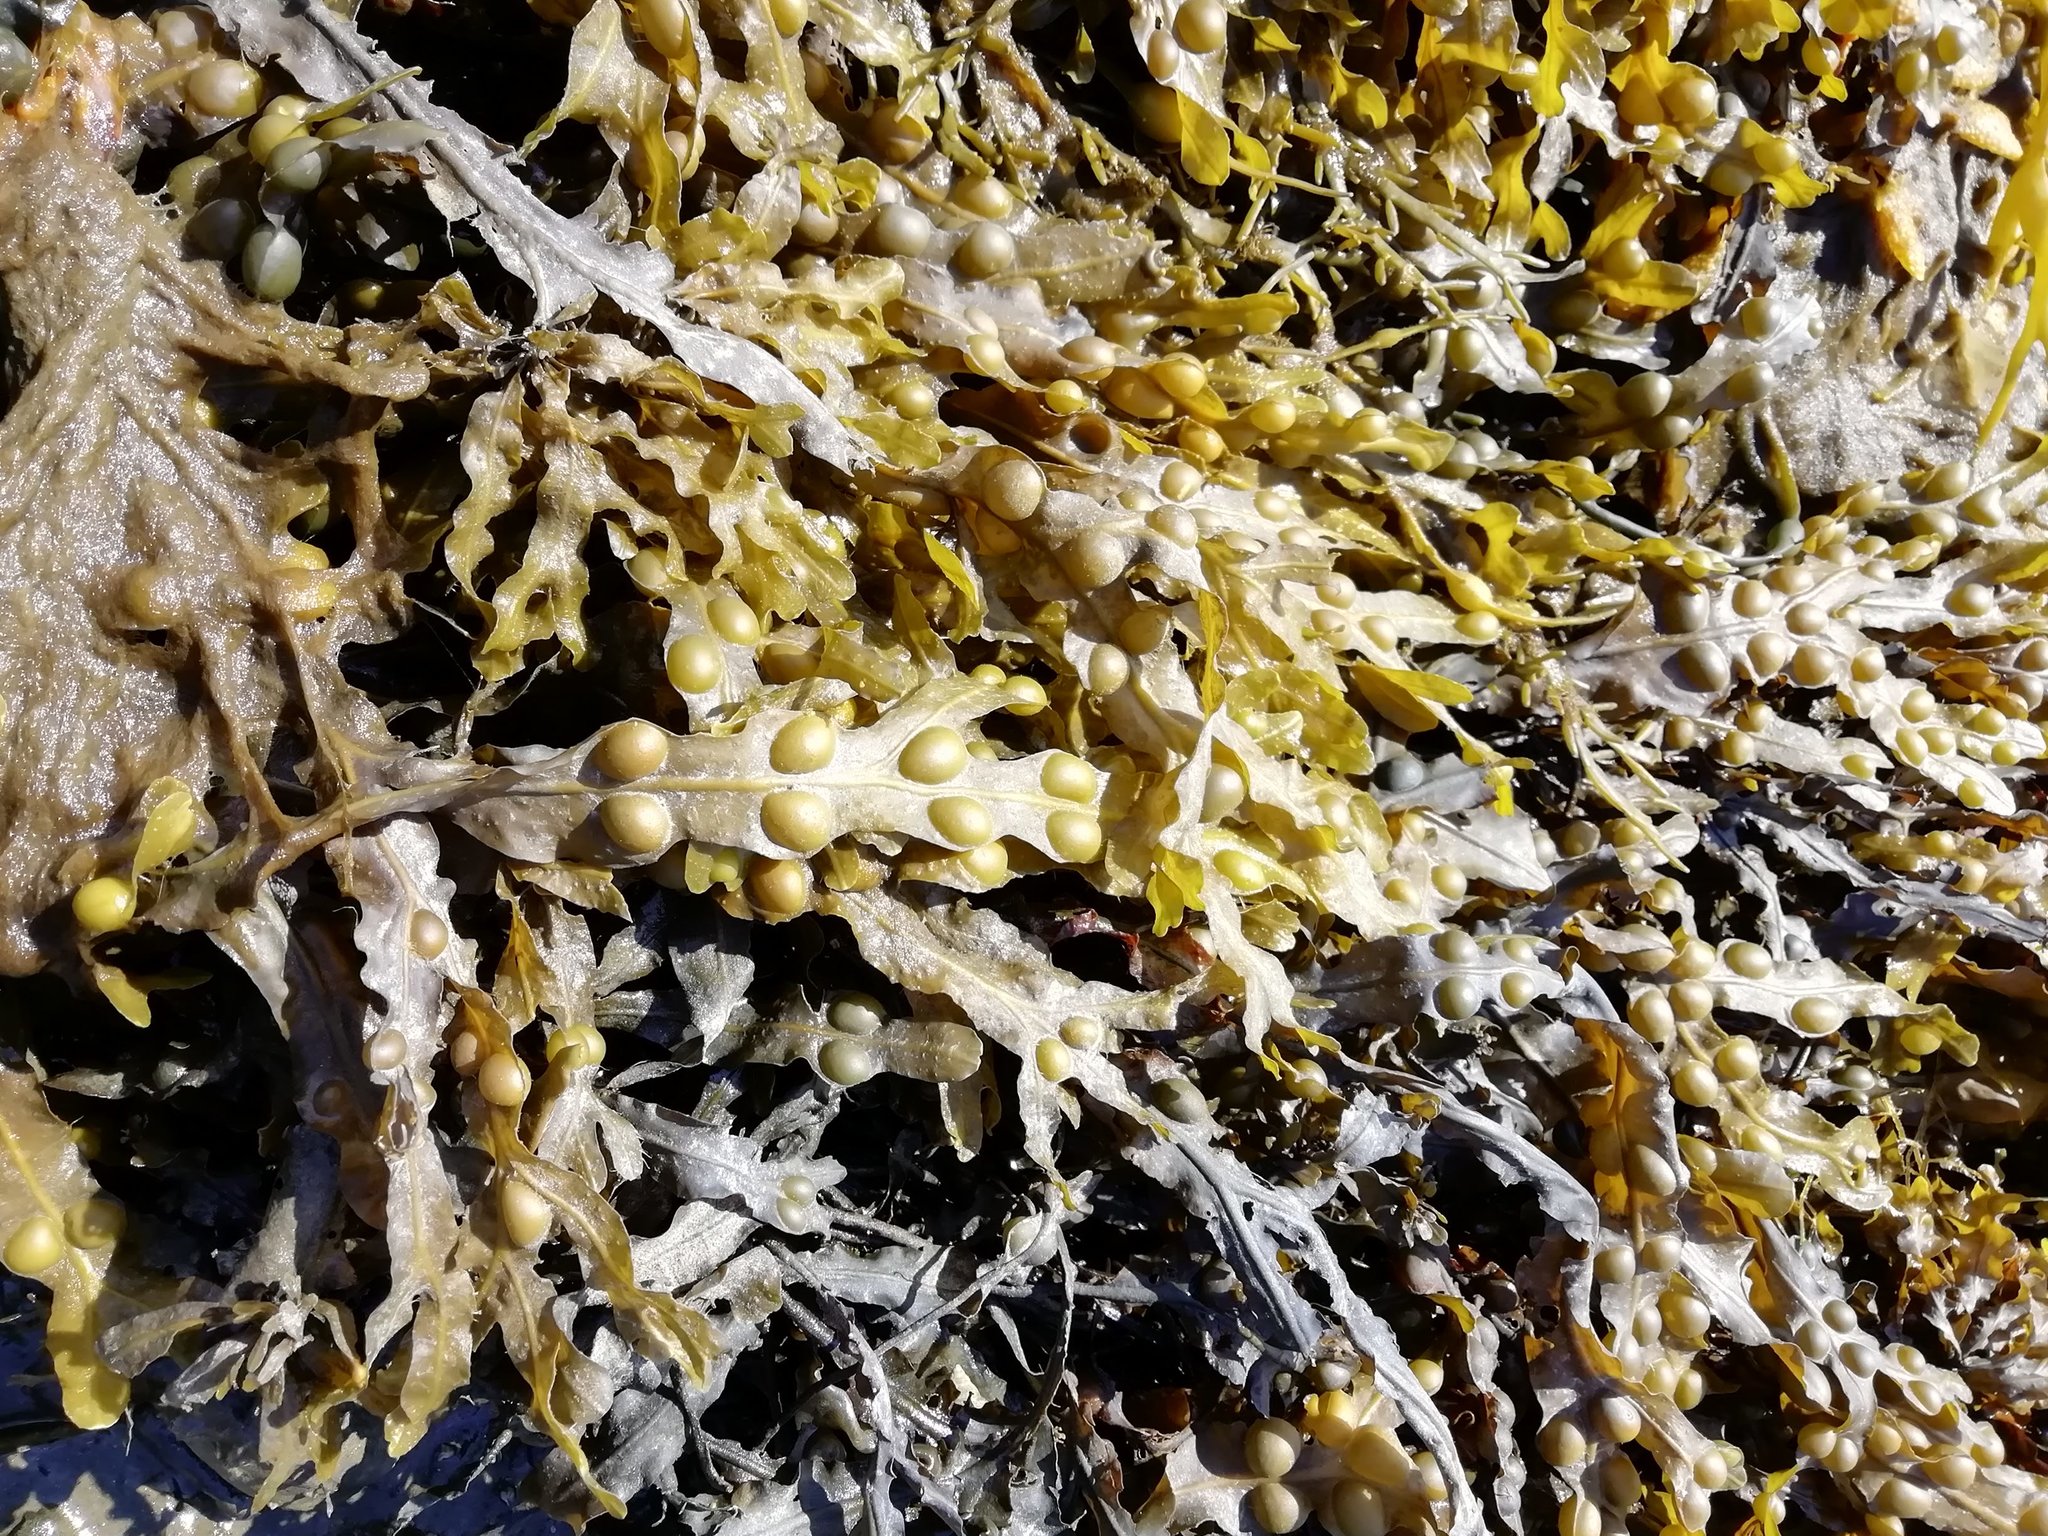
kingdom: Chromista
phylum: Ochrophyta
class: Phaeophyceae
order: Fucales
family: Fucaceae
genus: Fucus
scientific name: Fucus vesiculosus
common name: Bladder wrack
